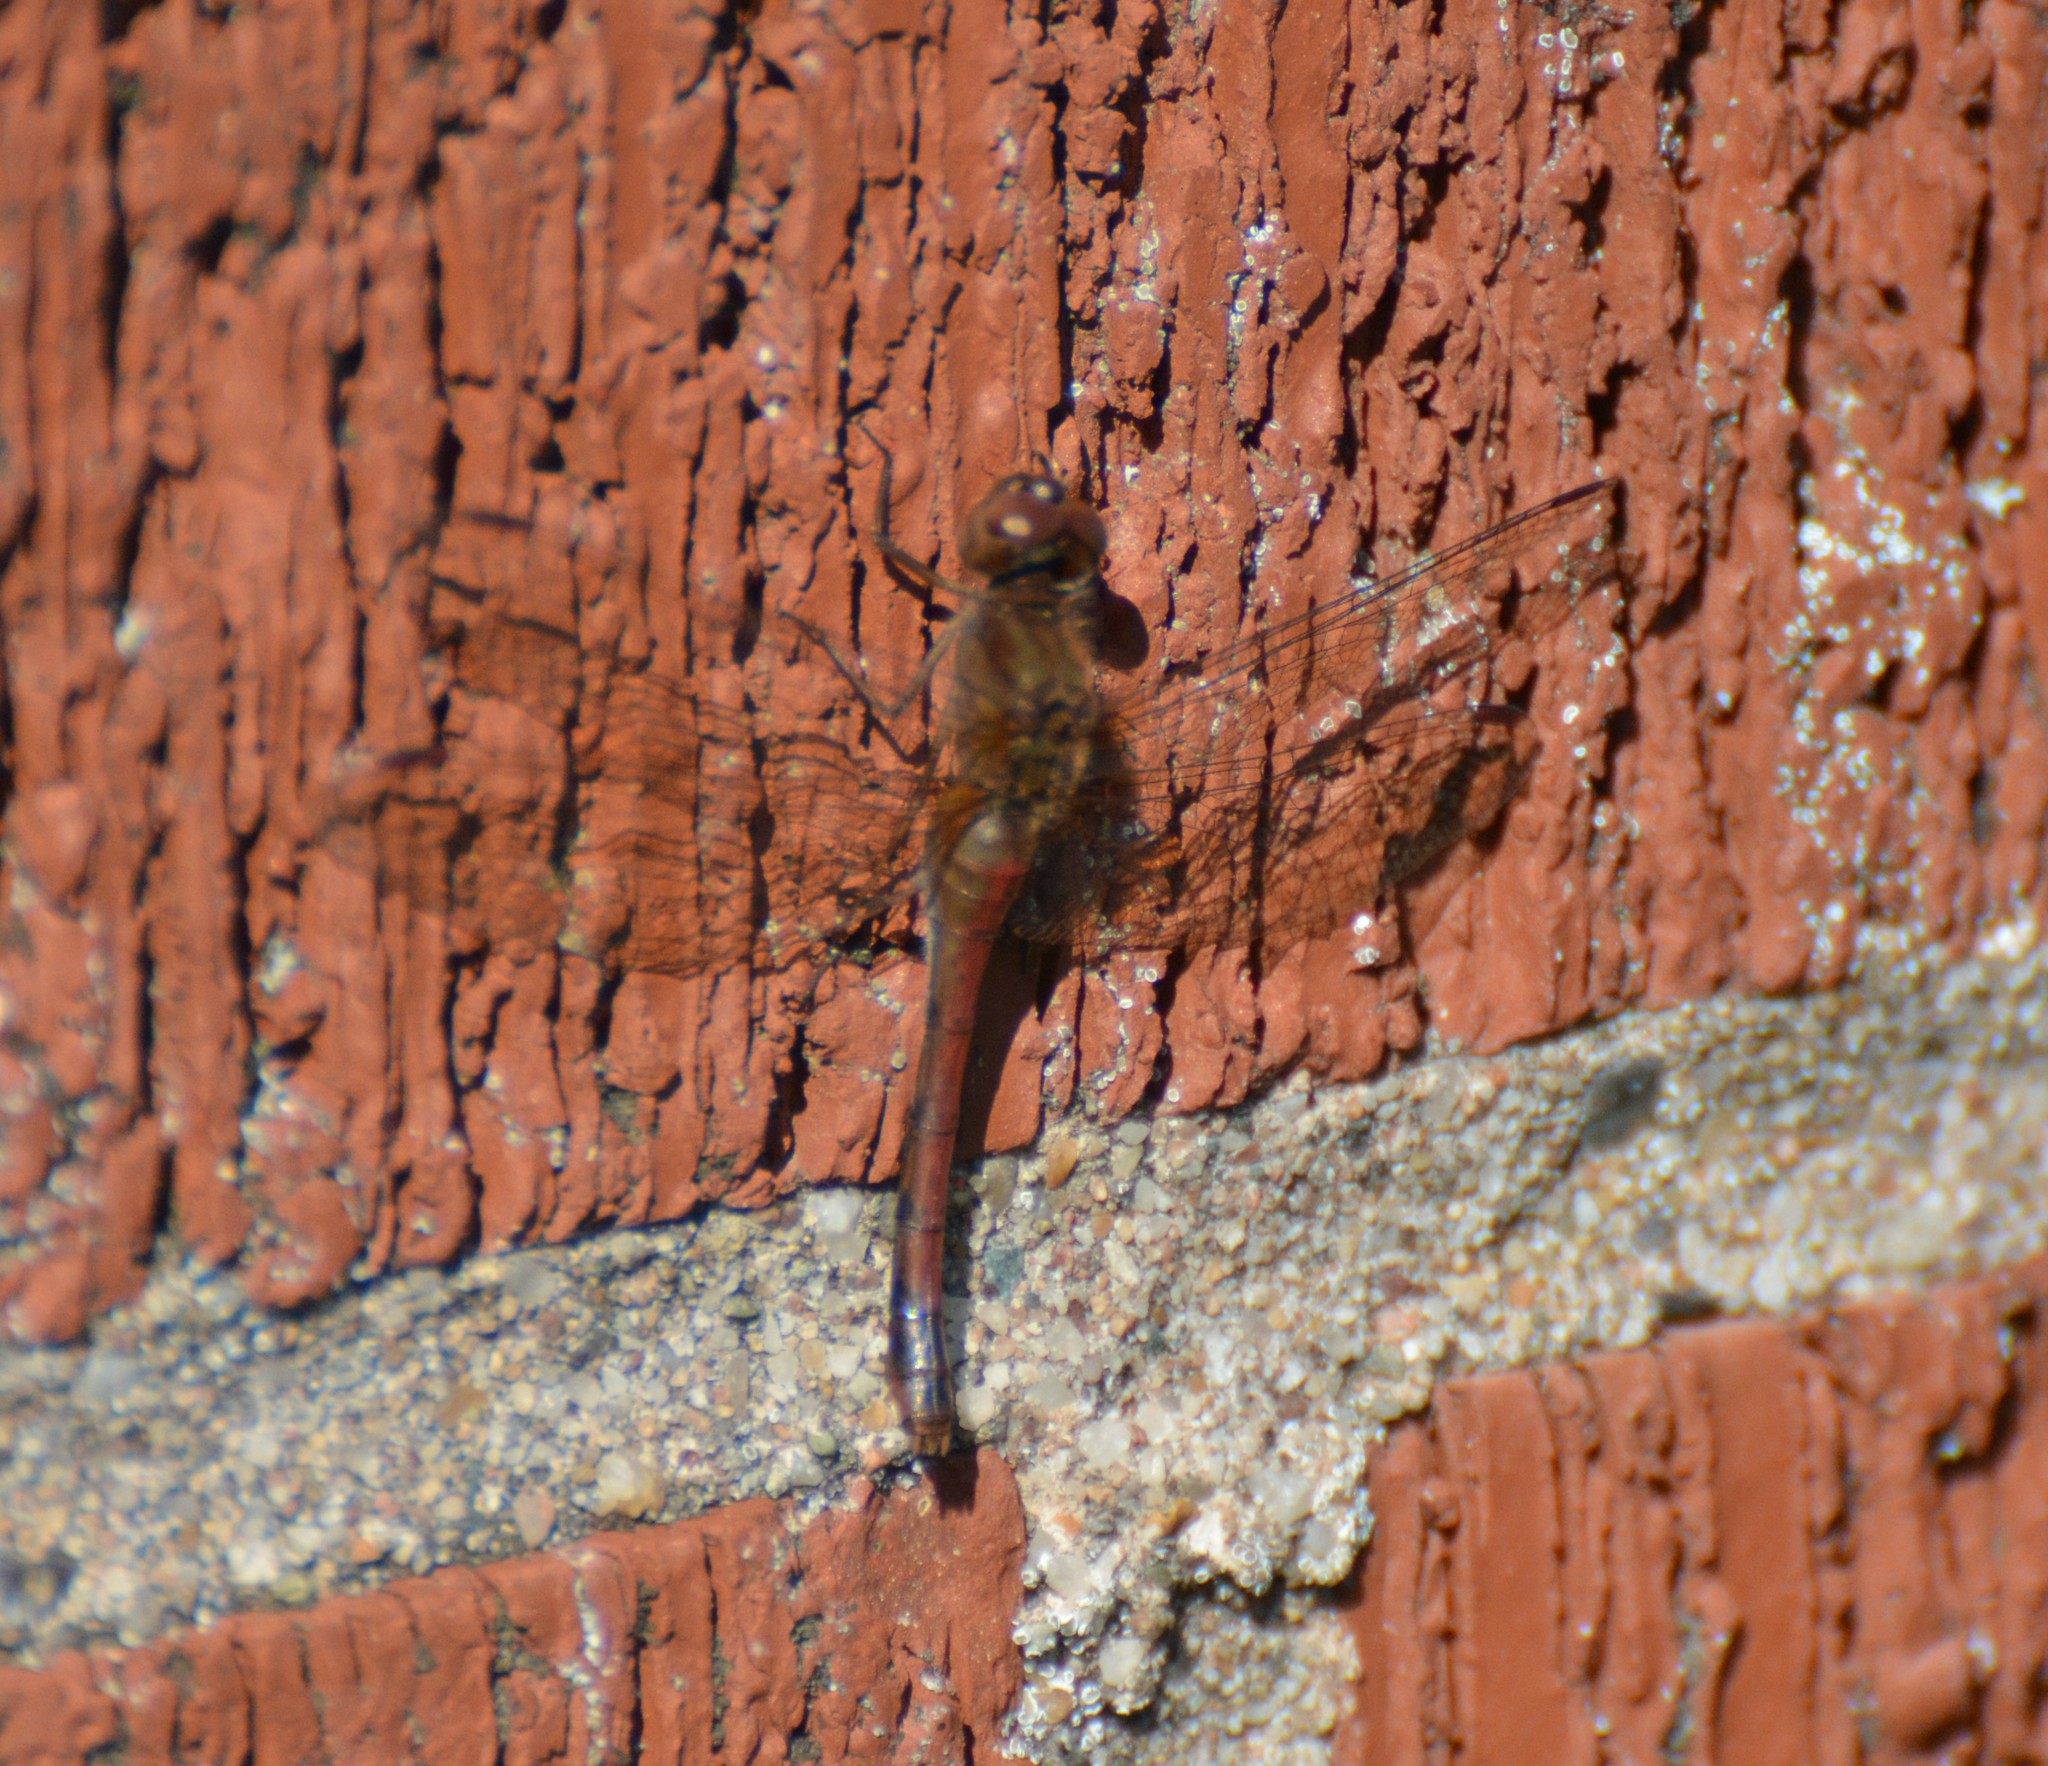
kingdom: Animalia
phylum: Arthropoda
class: Insecta
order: Odonata
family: Libellulidae
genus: Sympetrum
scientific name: Sympetrum vicinum
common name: Autumn meadowhawk
